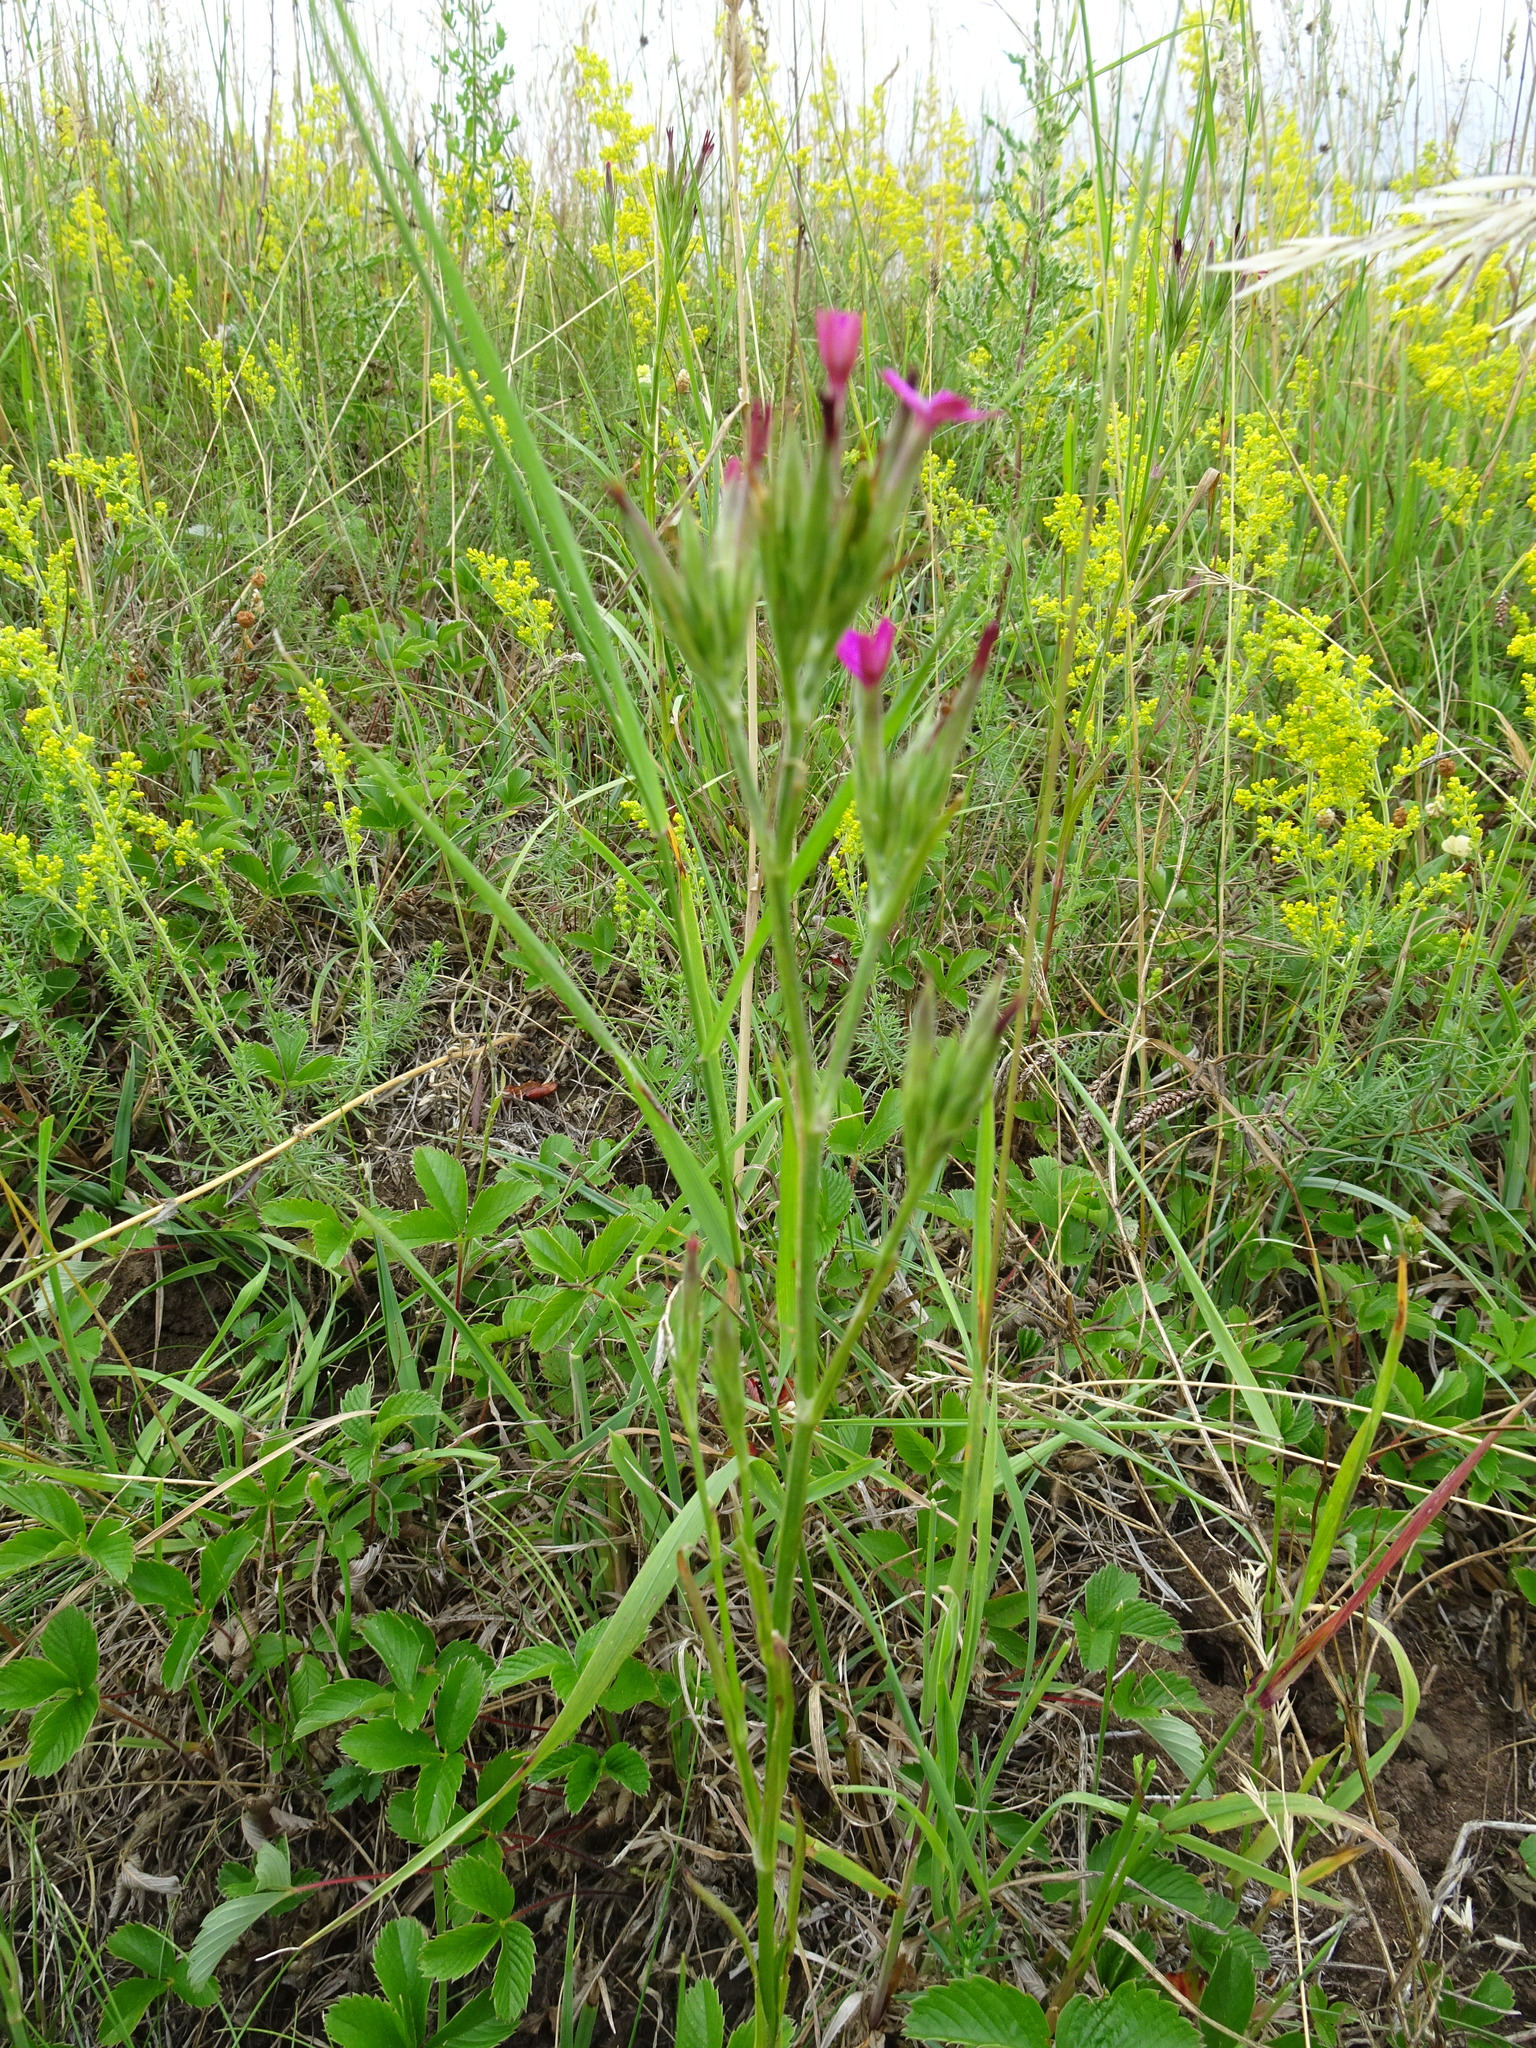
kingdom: Plantae
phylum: Tracheophyta
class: Magnoliopsida
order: Caryophyllales
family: Caryophyllaceae
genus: Dianthus
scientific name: Dianthus armeria
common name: Deptford pink
